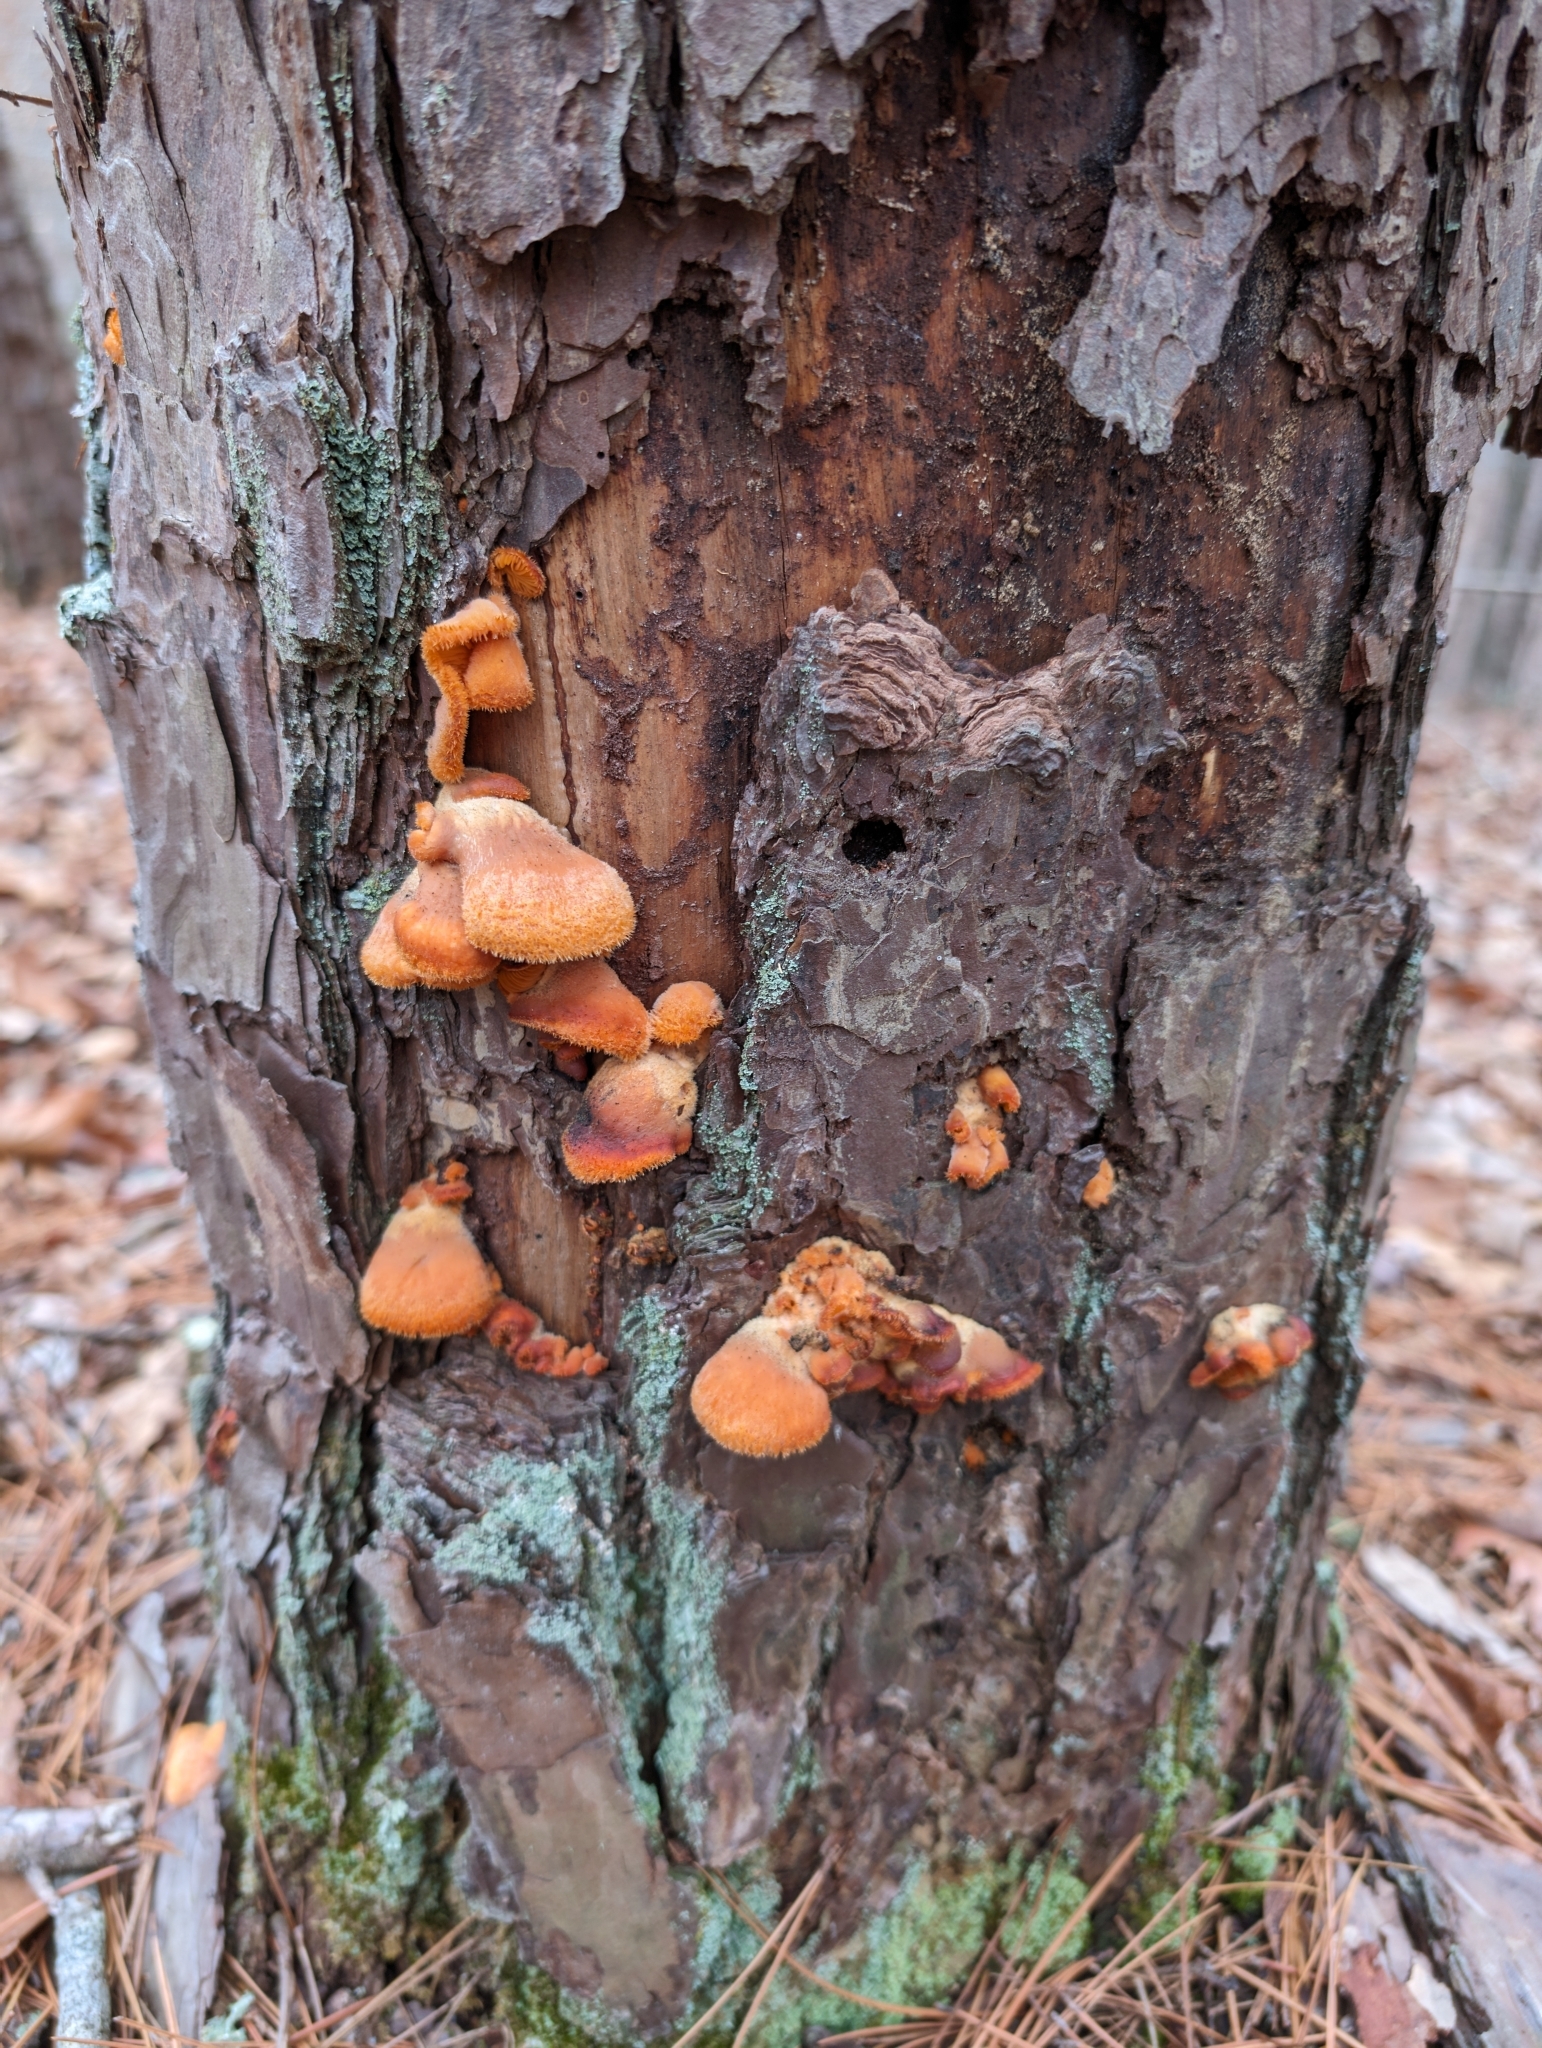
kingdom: Fungi
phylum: Basidiomycota
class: Agaricomycetes
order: Agaricales
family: Phyllotopsidaceae
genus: Phyllotopsis
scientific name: Phyllotopsis nidulans
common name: Orange mock oyster
